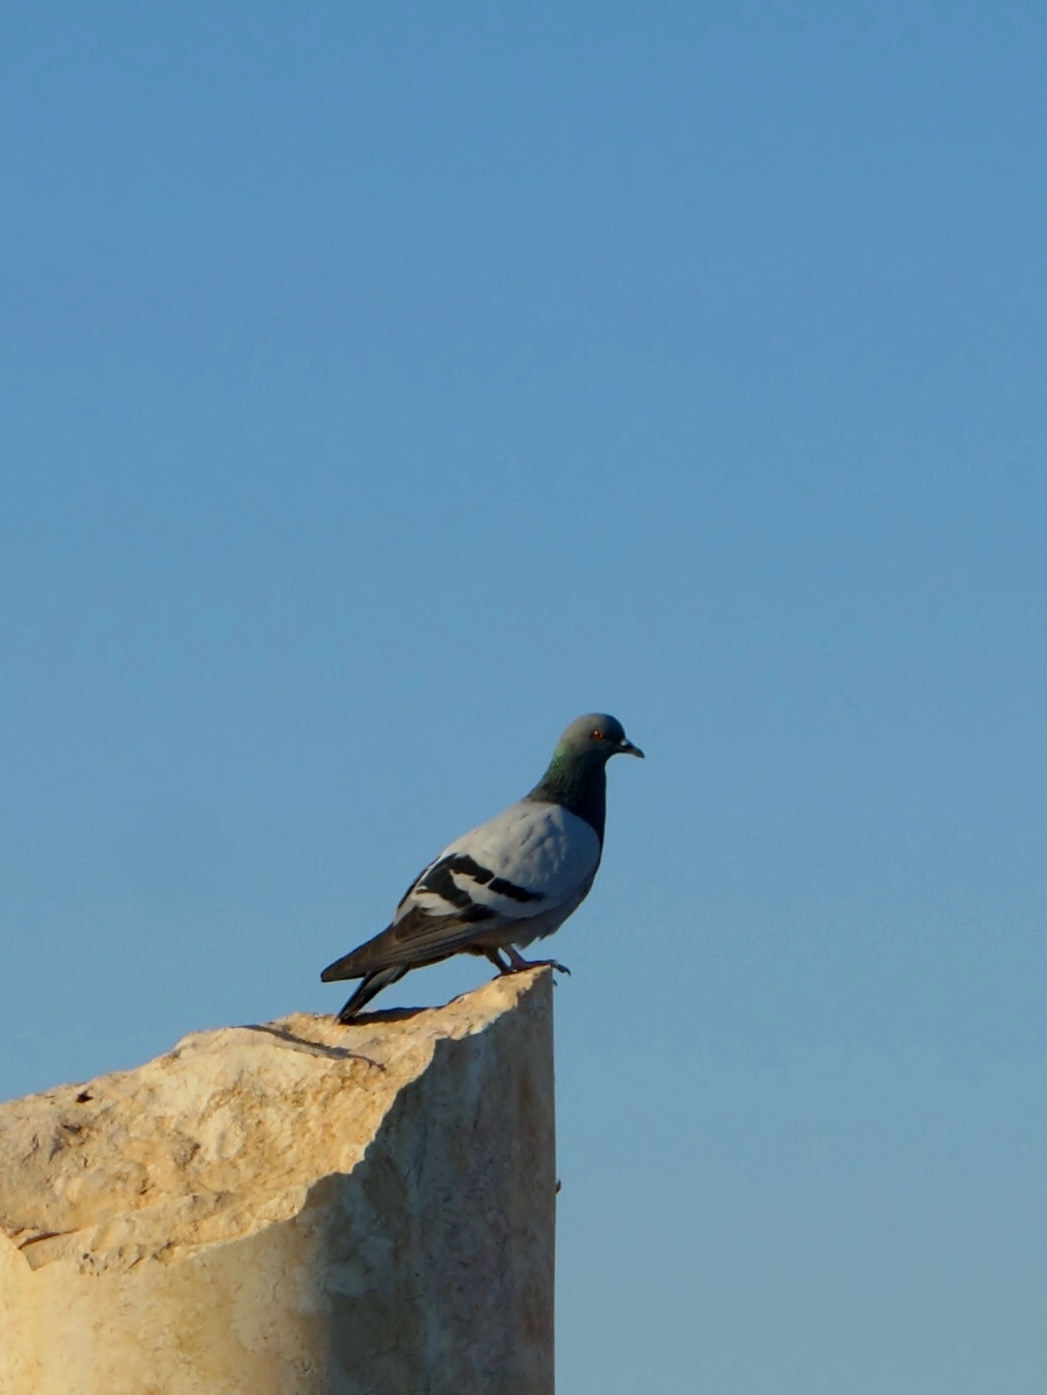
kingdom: Animalia
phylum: Chordata
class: Aves
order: Columbiformes
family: Columbidae
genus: Columba
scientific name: Columba livia
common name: Rock pigeon
